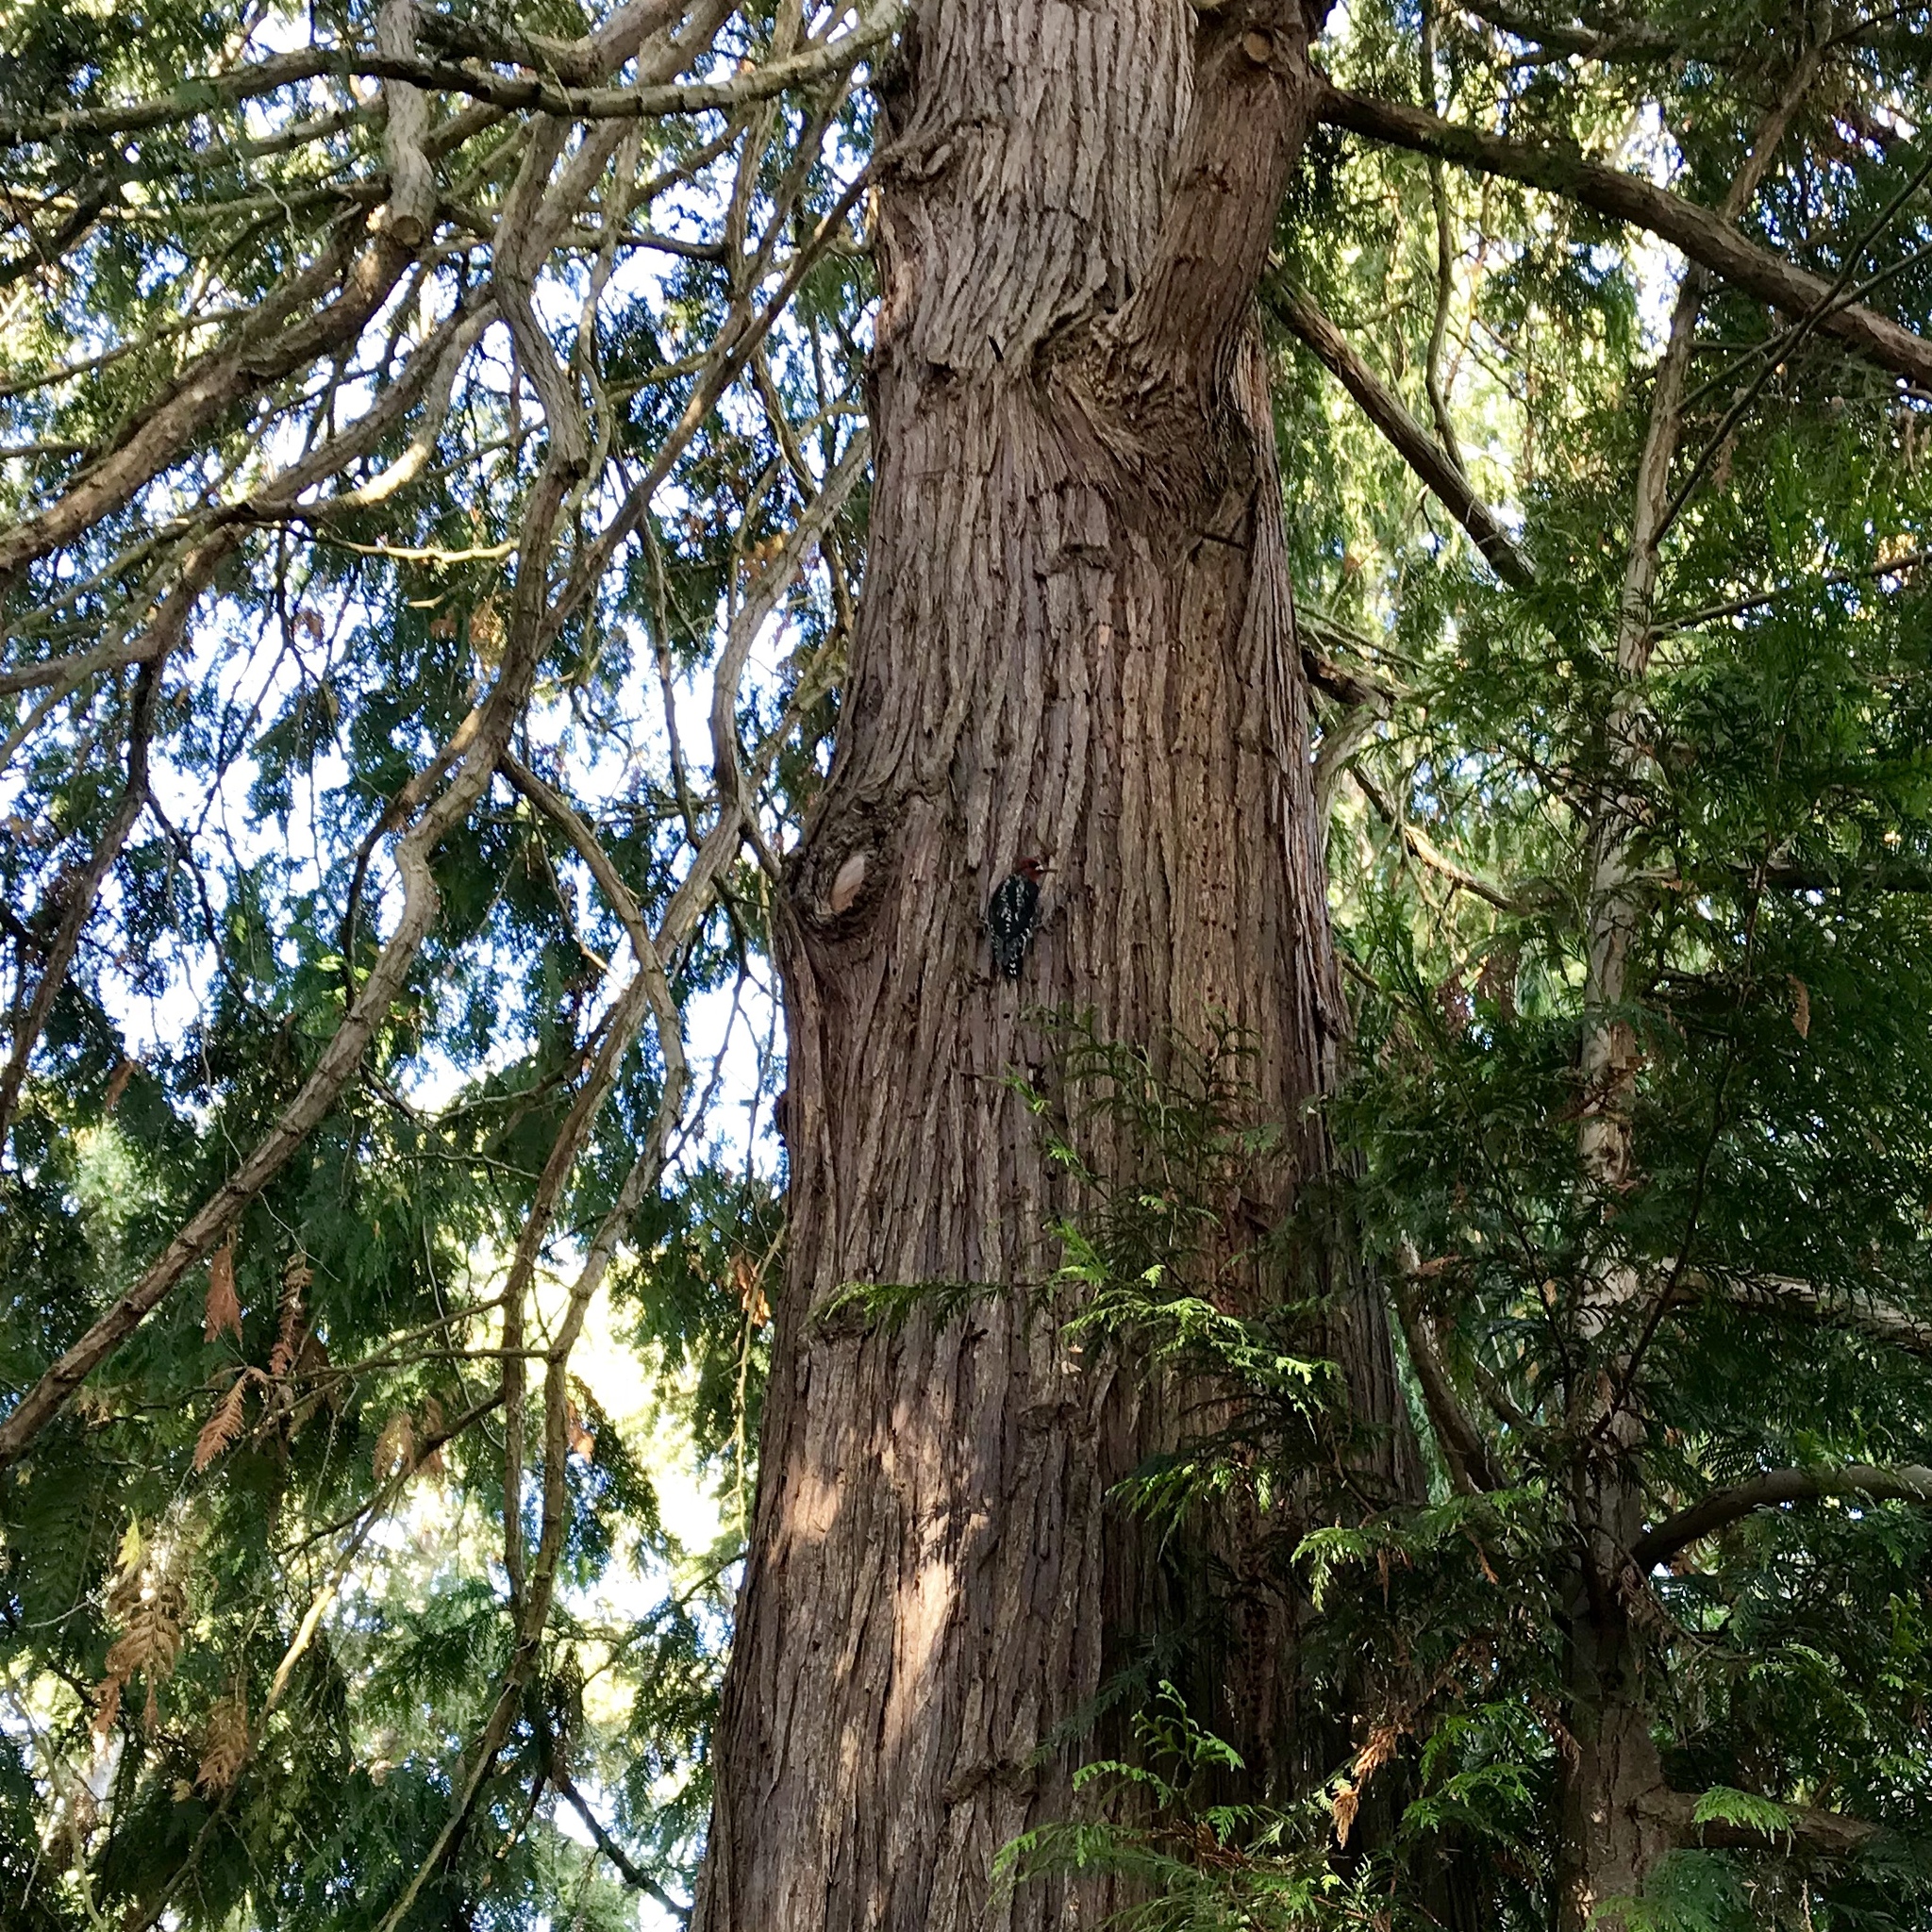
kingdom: Animalia
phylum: Chordata
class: Aves
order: Piciformes
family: Picidae
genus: Sphyrapicus
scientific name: Sphyrapicus ruber
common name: Red-breasted sapsucker
